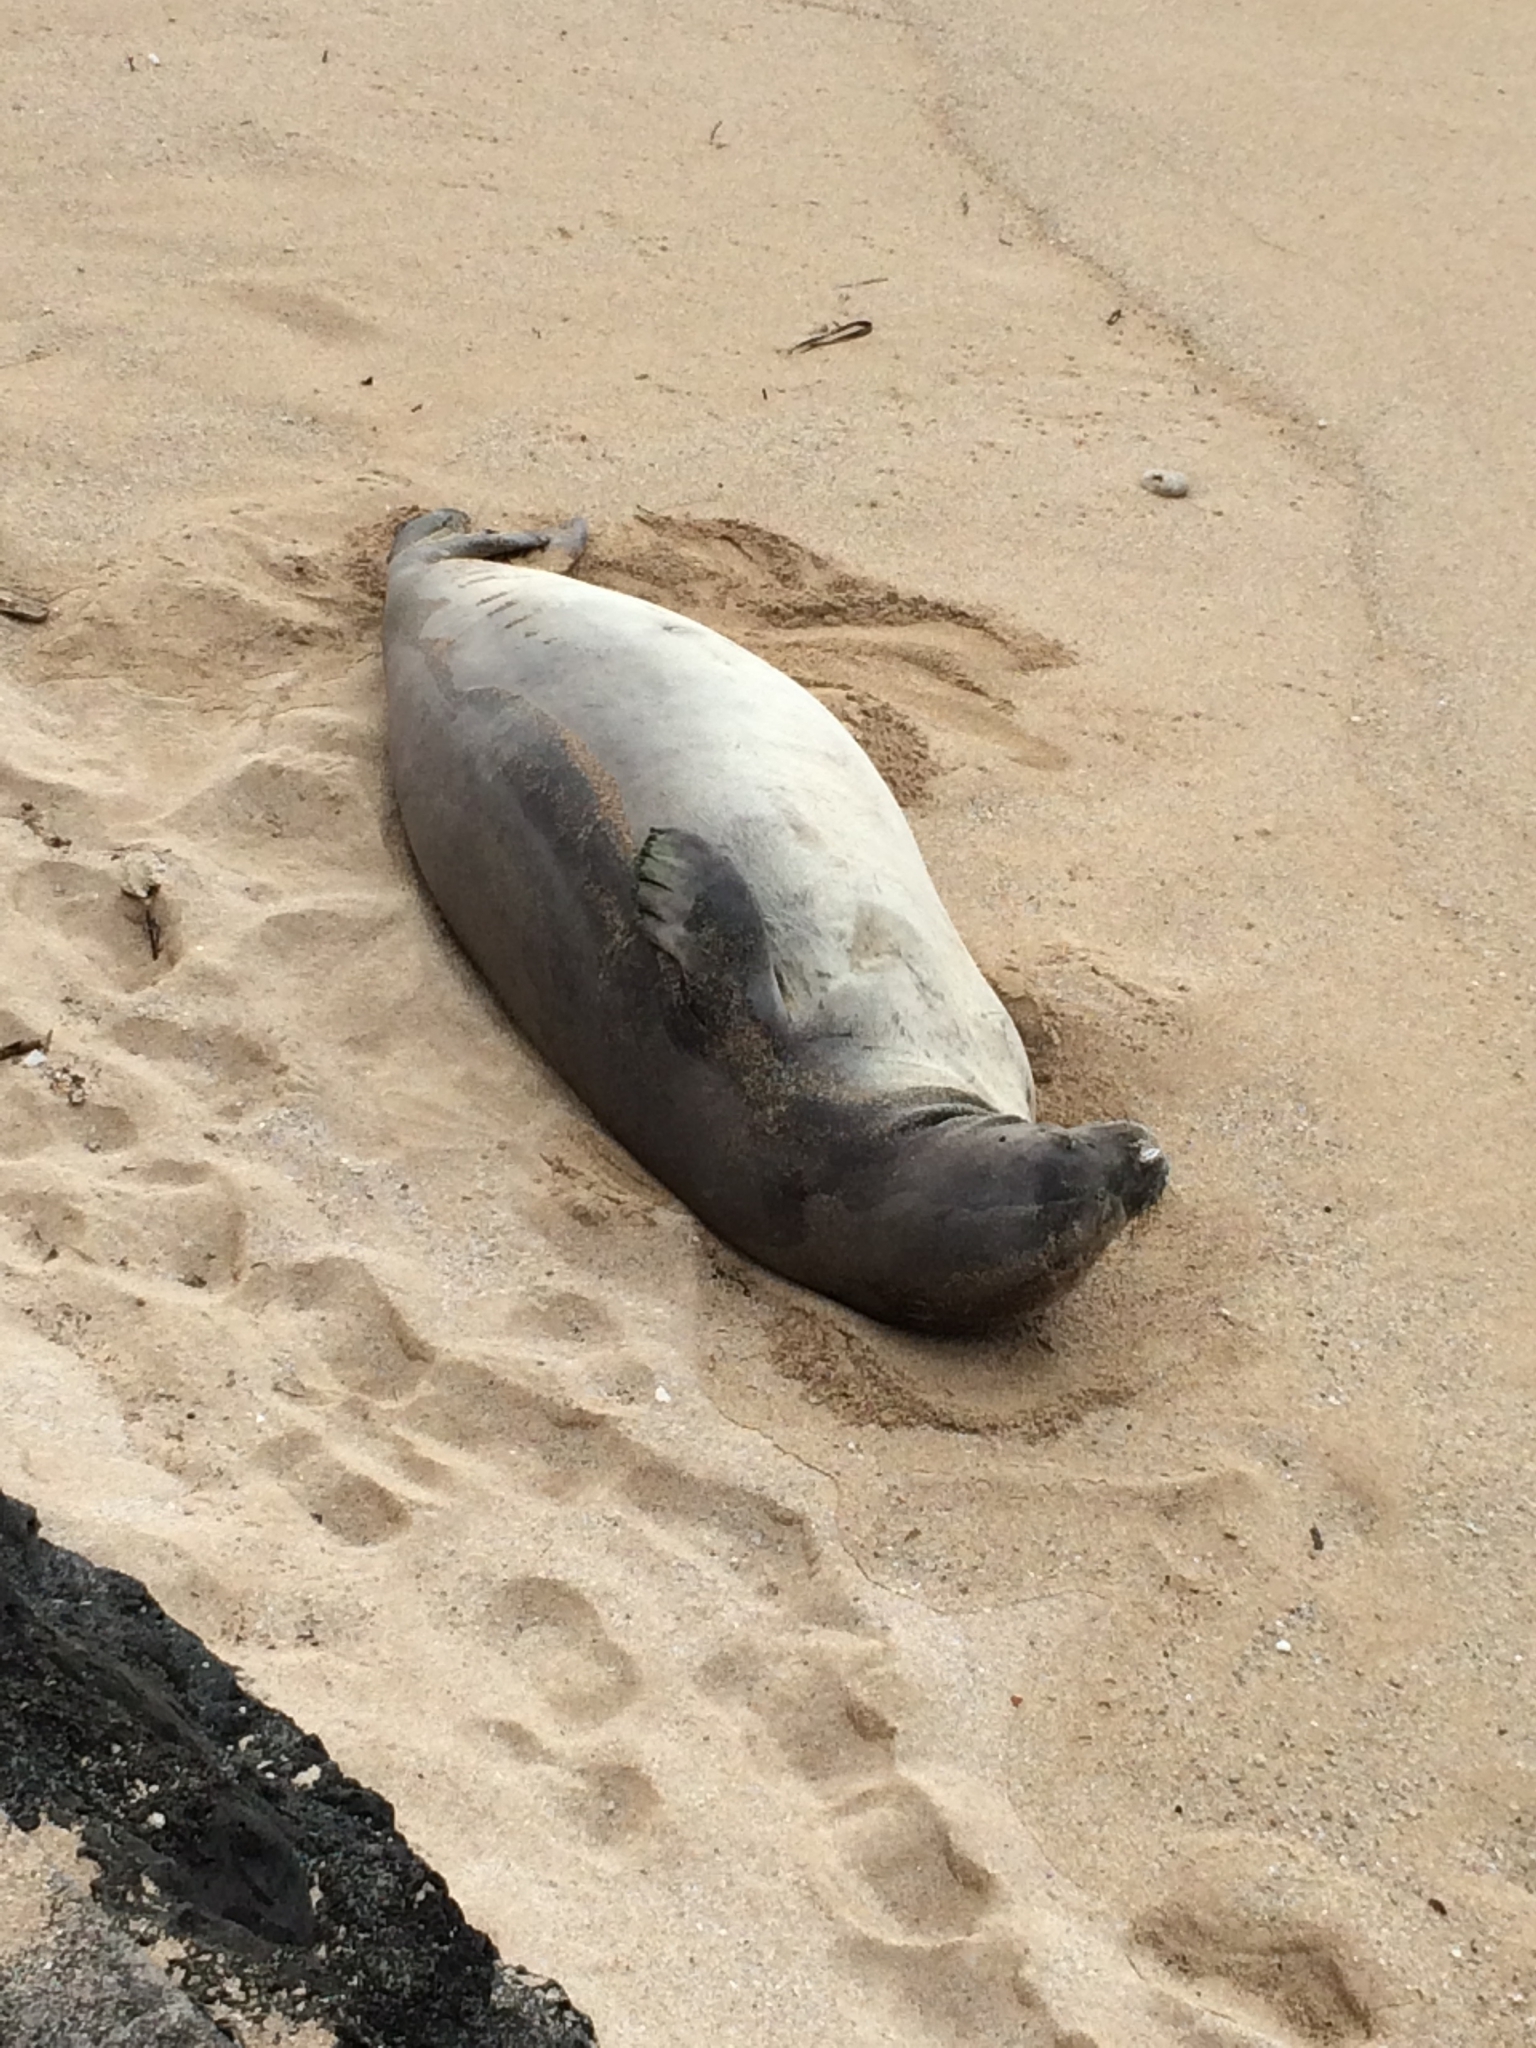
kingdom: Animalia
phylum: Chordata
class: Mammalia
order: Carnivora
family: Phocidae
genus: Neomonachus
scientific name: Neomonachus schauinslandi
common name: Hawaiian monk seal
